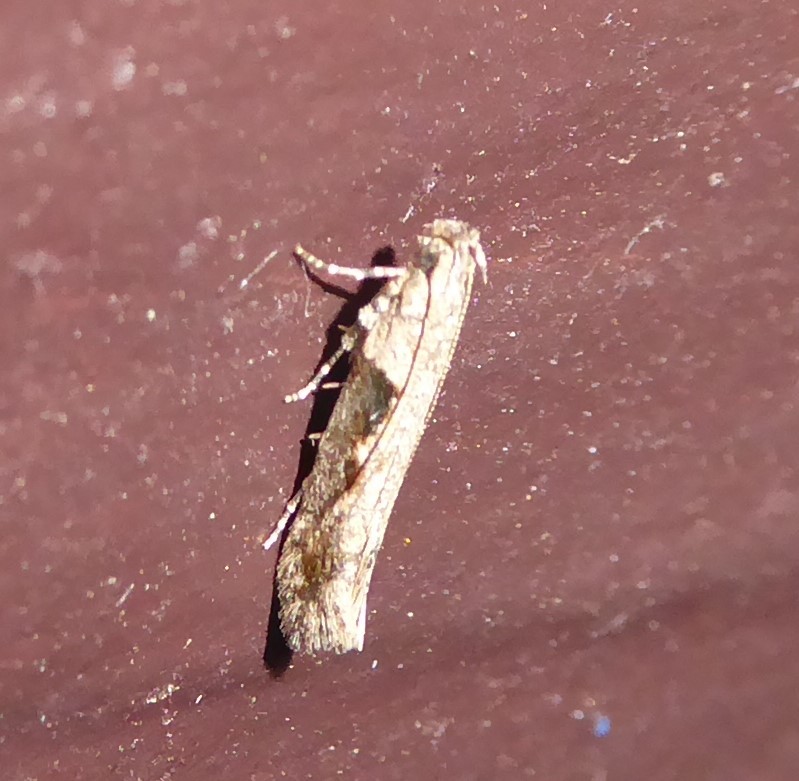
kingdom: Animalia
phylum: Arthropoda
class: Insecta
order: Lepidoptera
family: Gelechiidae
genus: Symmetrischema
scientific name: Symmetrischema tangolias
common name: Moth
